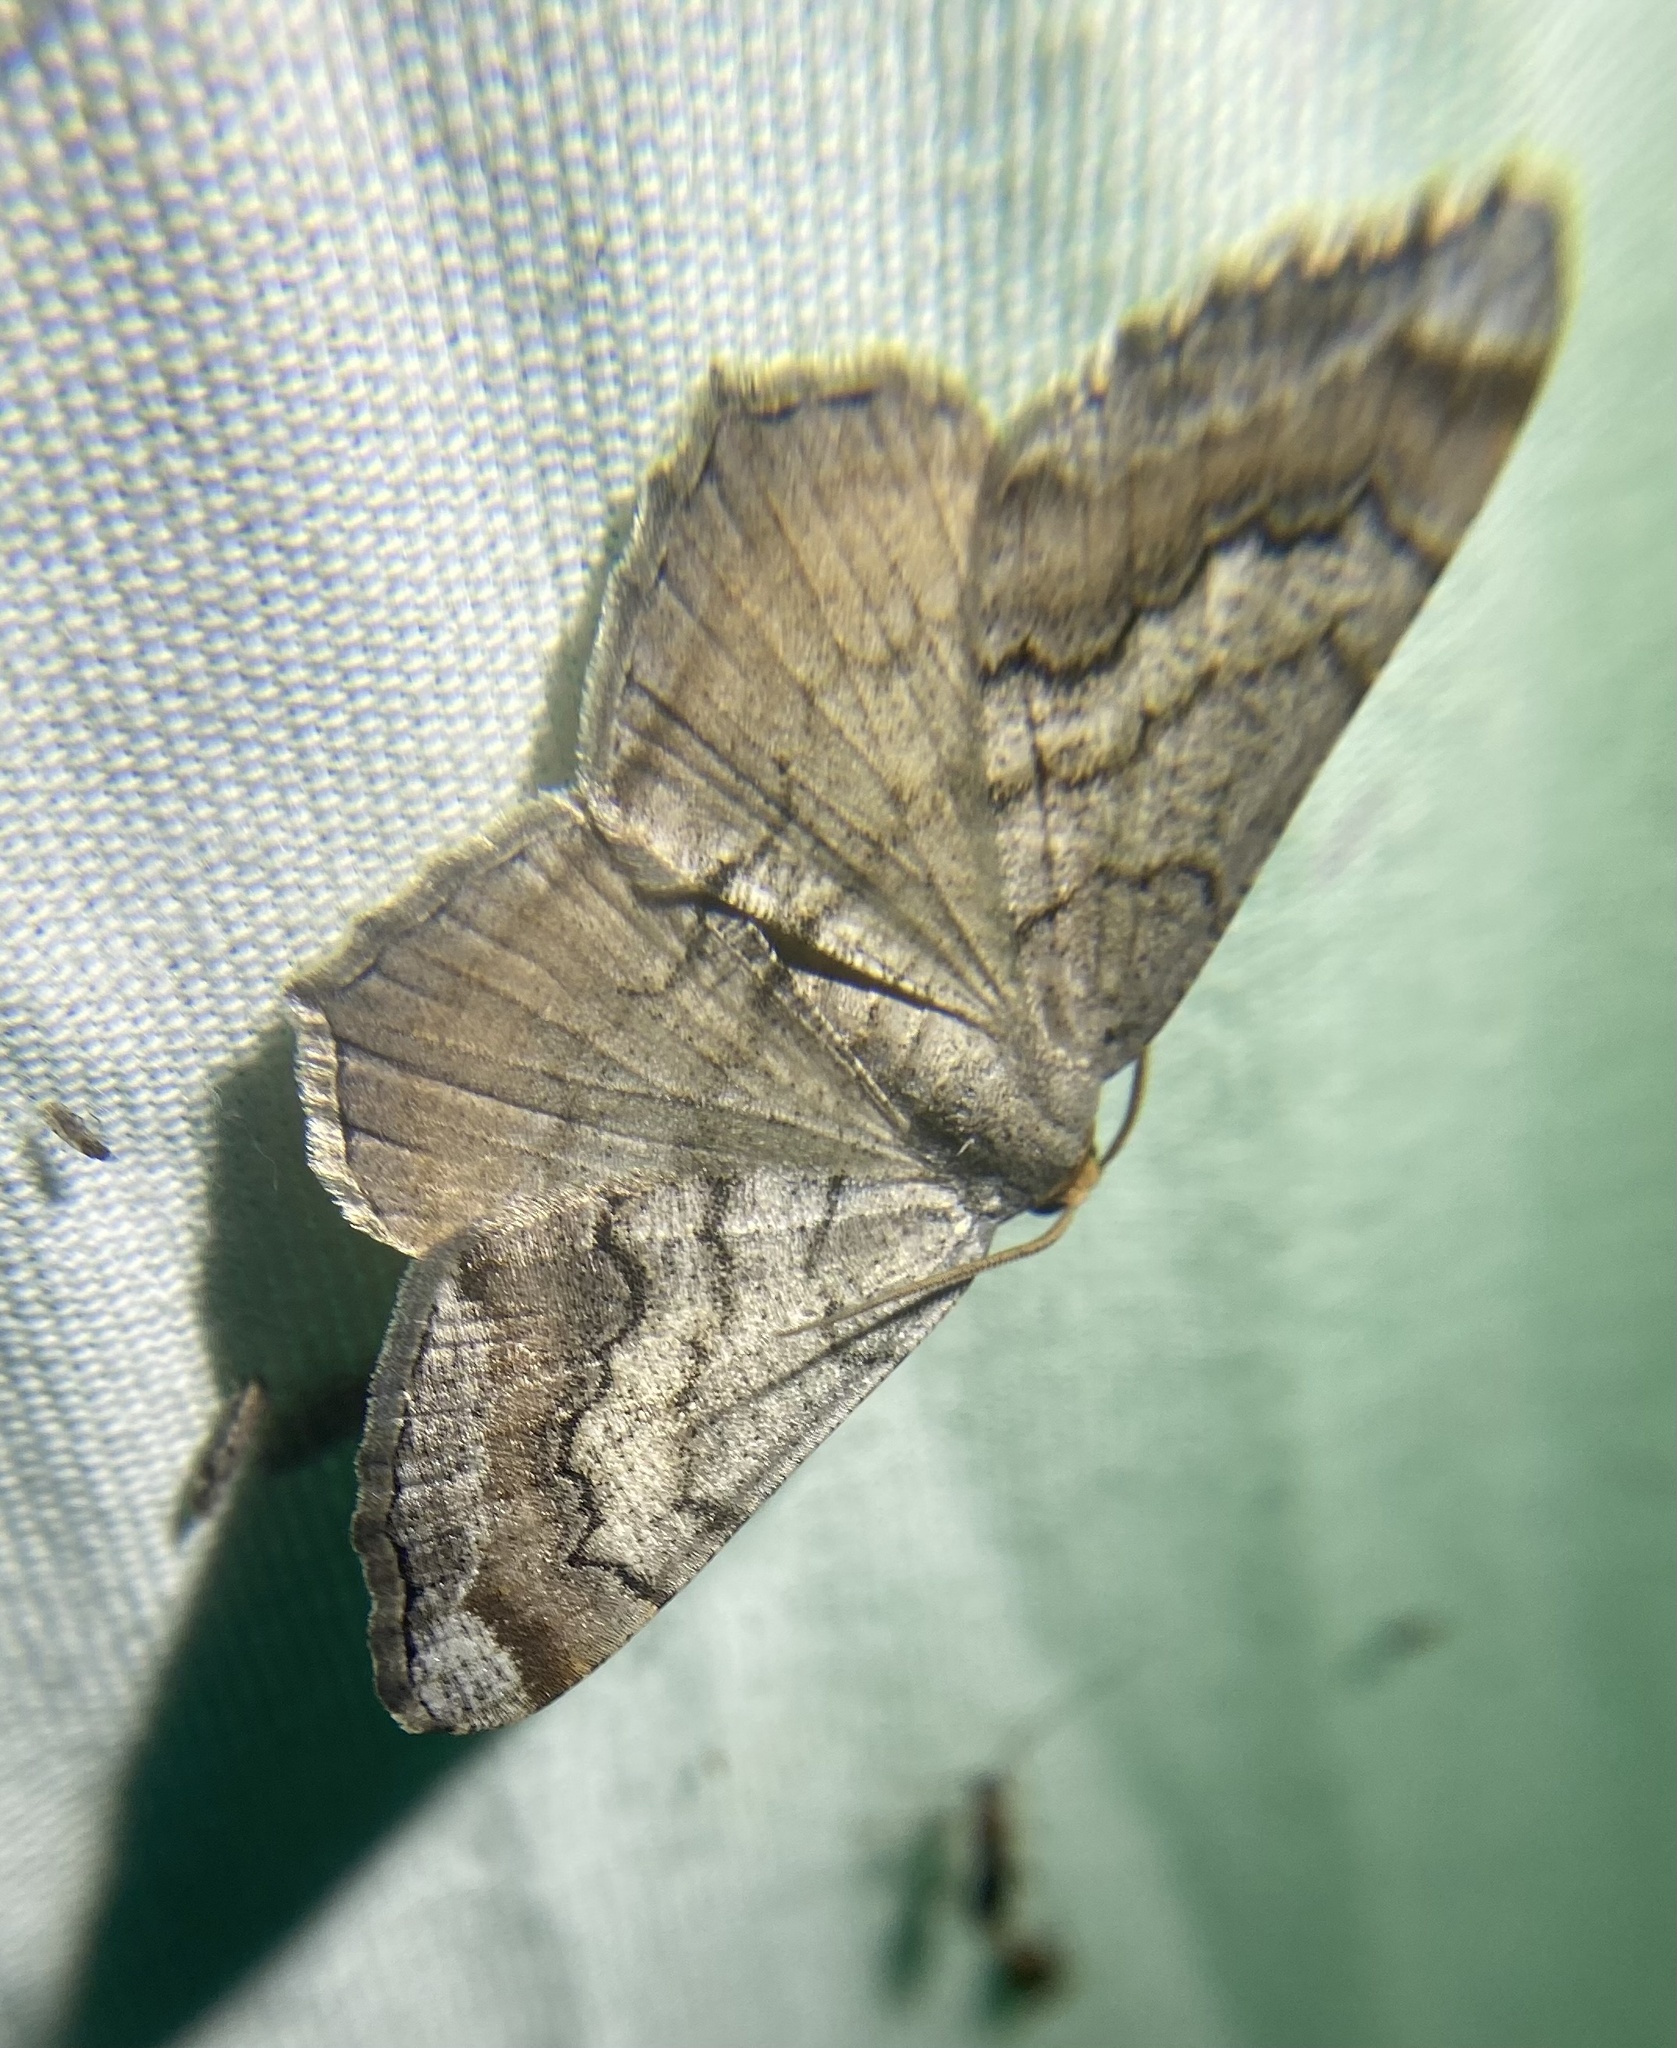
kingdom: Animalia
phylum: Arthropoda
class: Insecta
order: Lepidoptera
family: Geometridae
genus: Macaria
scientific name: Macaria distribuaria
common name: Southern chocolate angle
